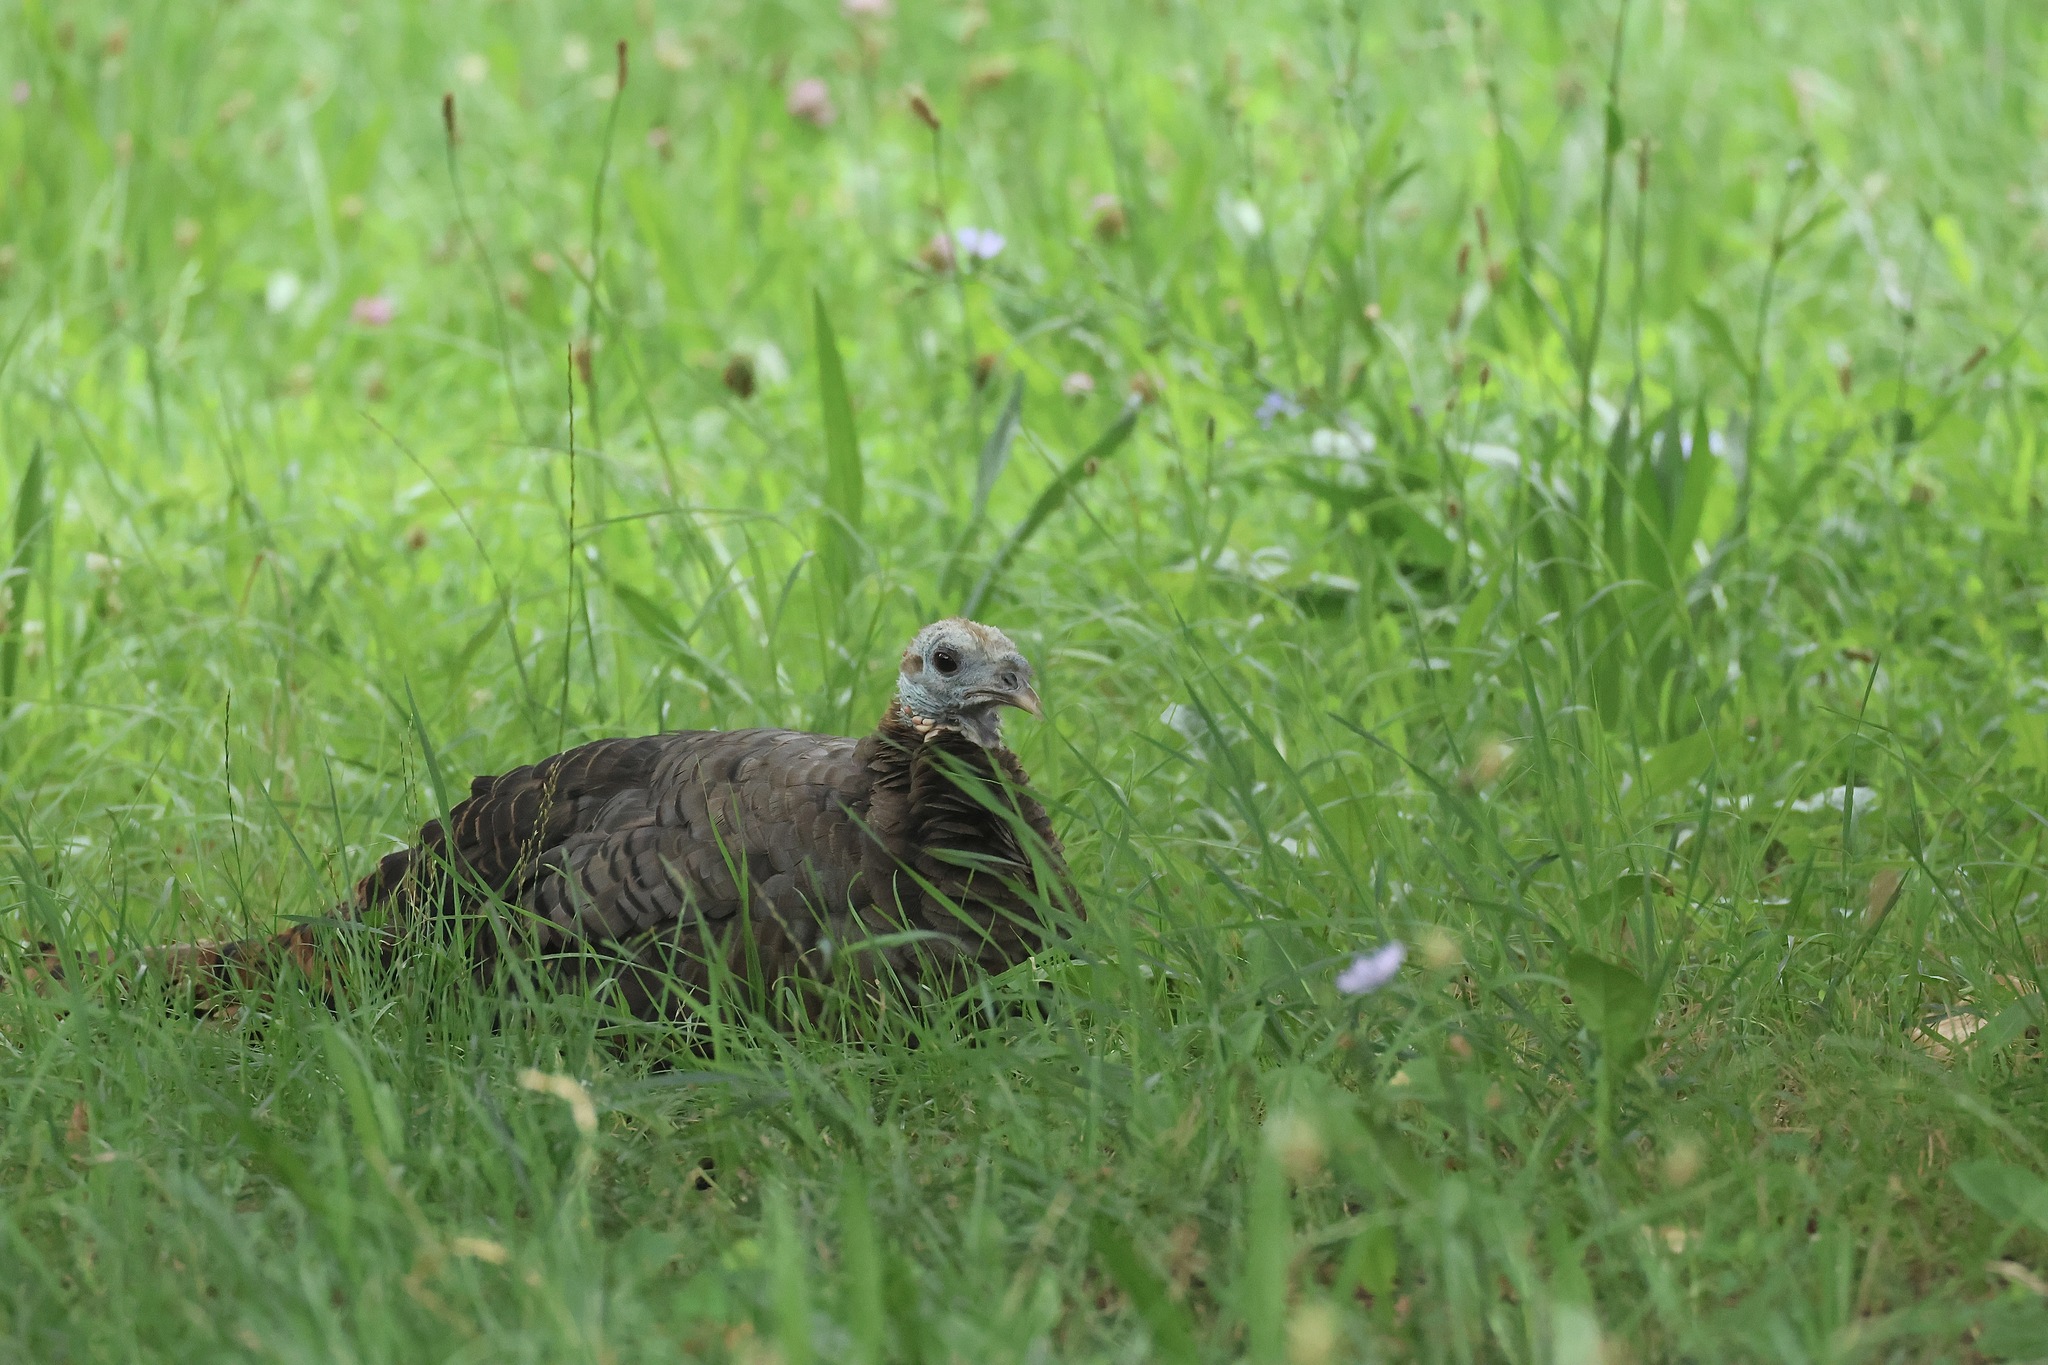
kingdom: Animalia
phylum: Chordata
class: Aves
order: Galliformes
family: Phasianidae
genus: Meleagris
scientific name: Meleagris gallopavo
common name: Wild turkey
